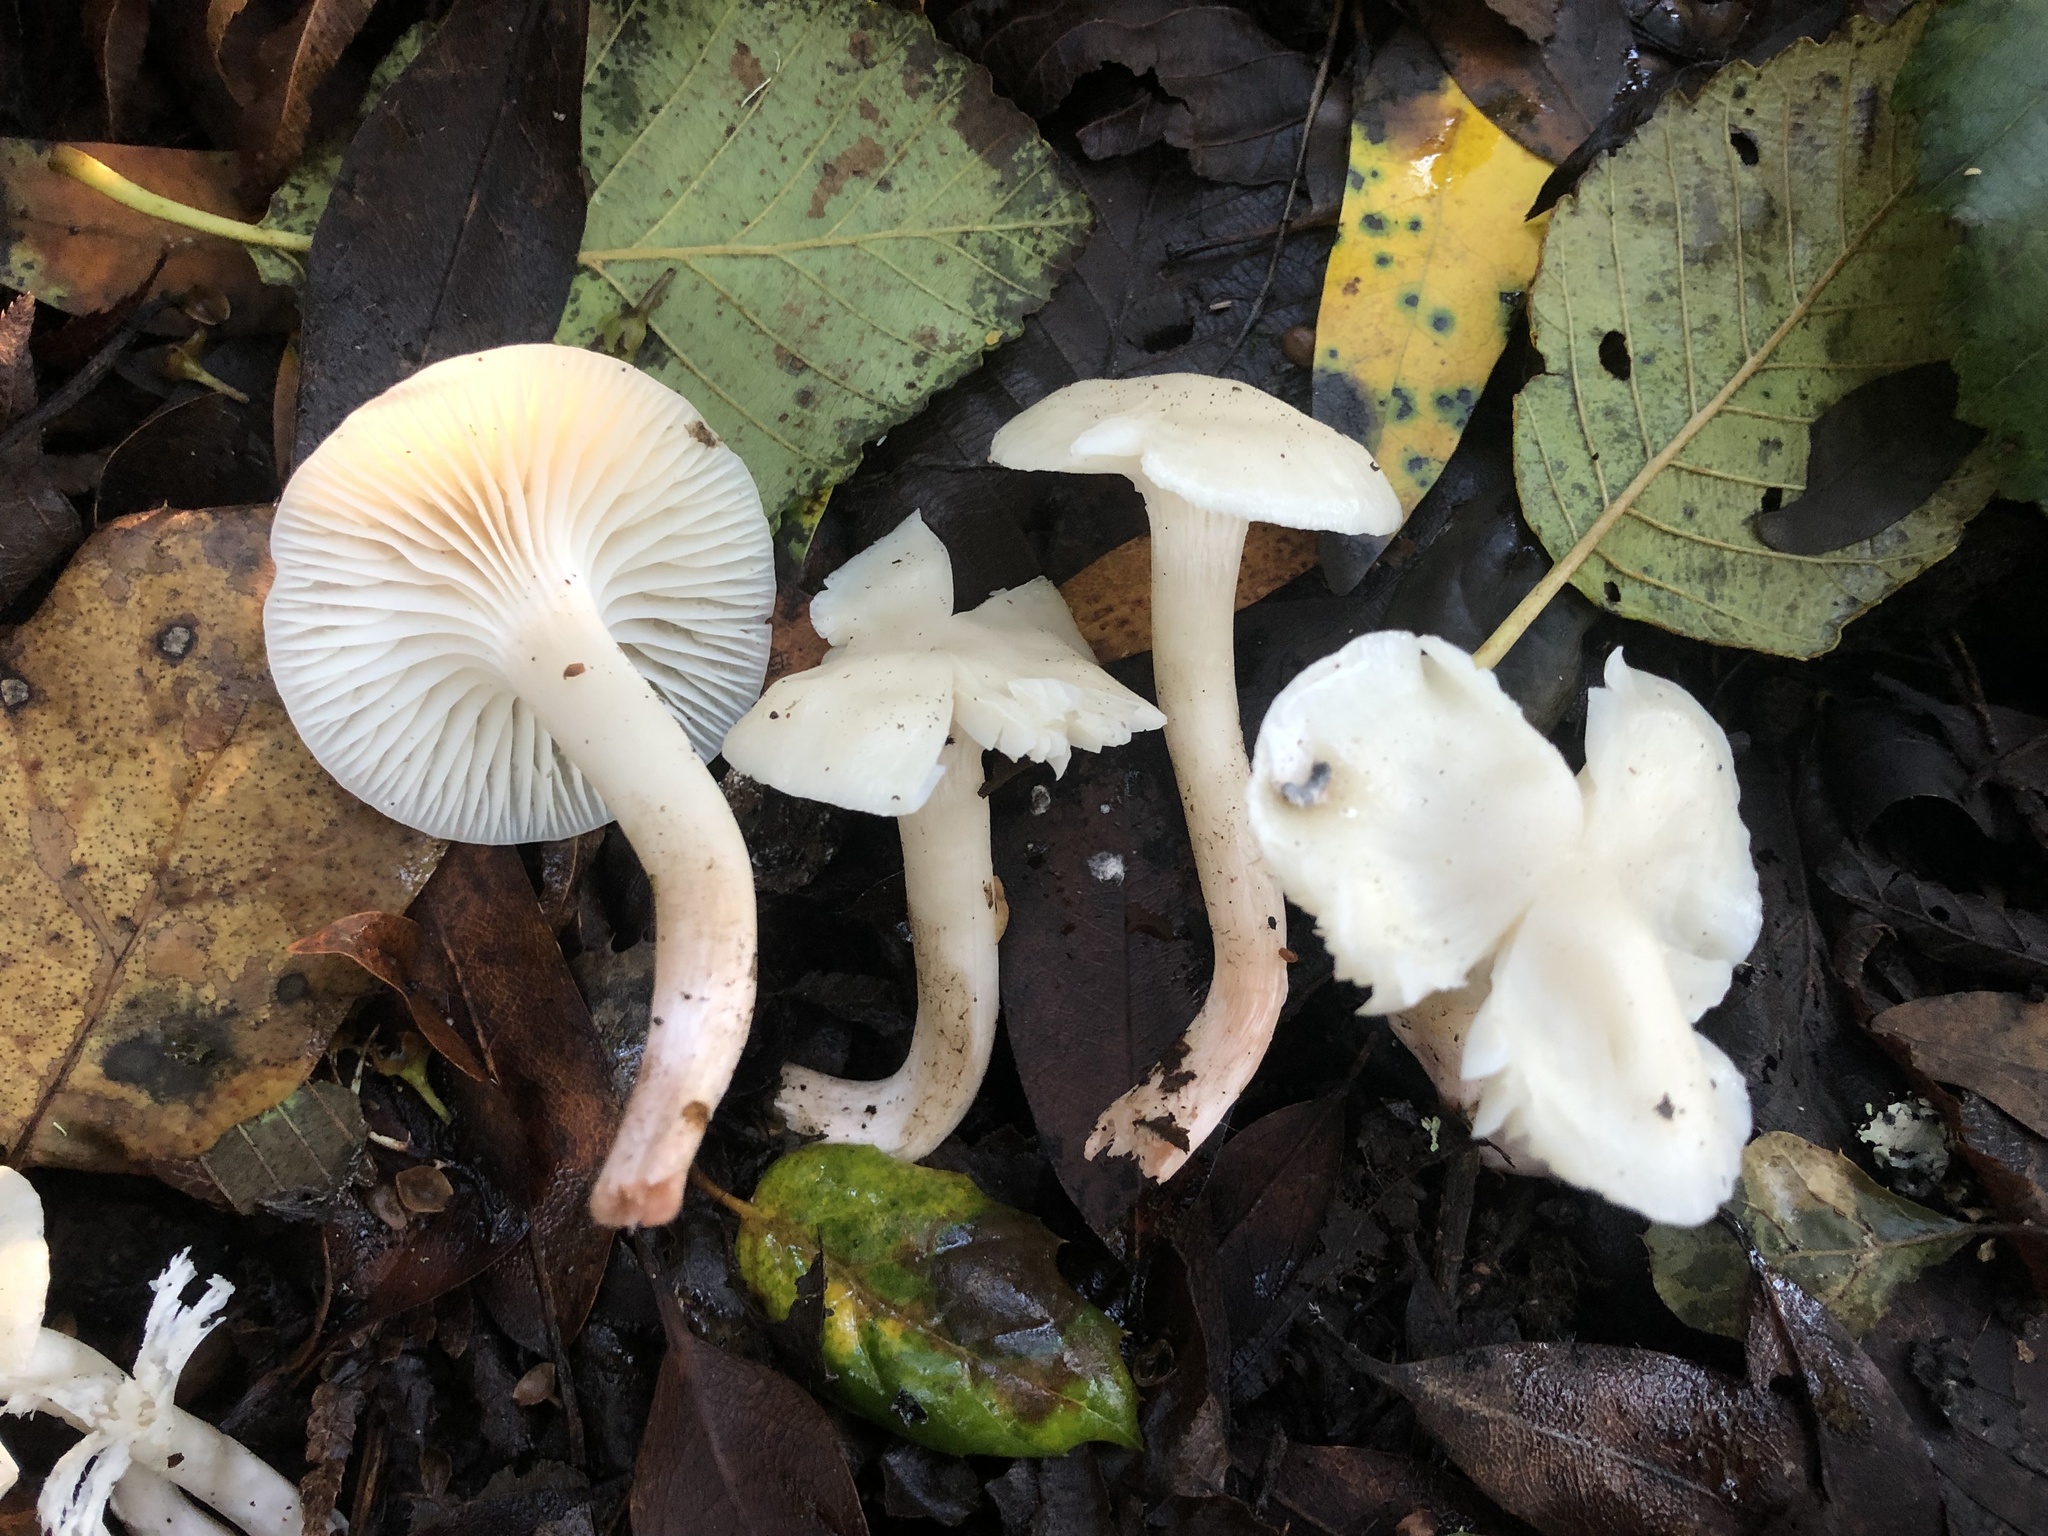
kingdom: Fungi
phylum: Basidiomycota
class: Agaricomycetes
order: Agaricales
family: Hygrophoraceae
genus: Cuphophyllus
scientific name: Cuphophyllus virgineus
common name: Snowy waxcap
